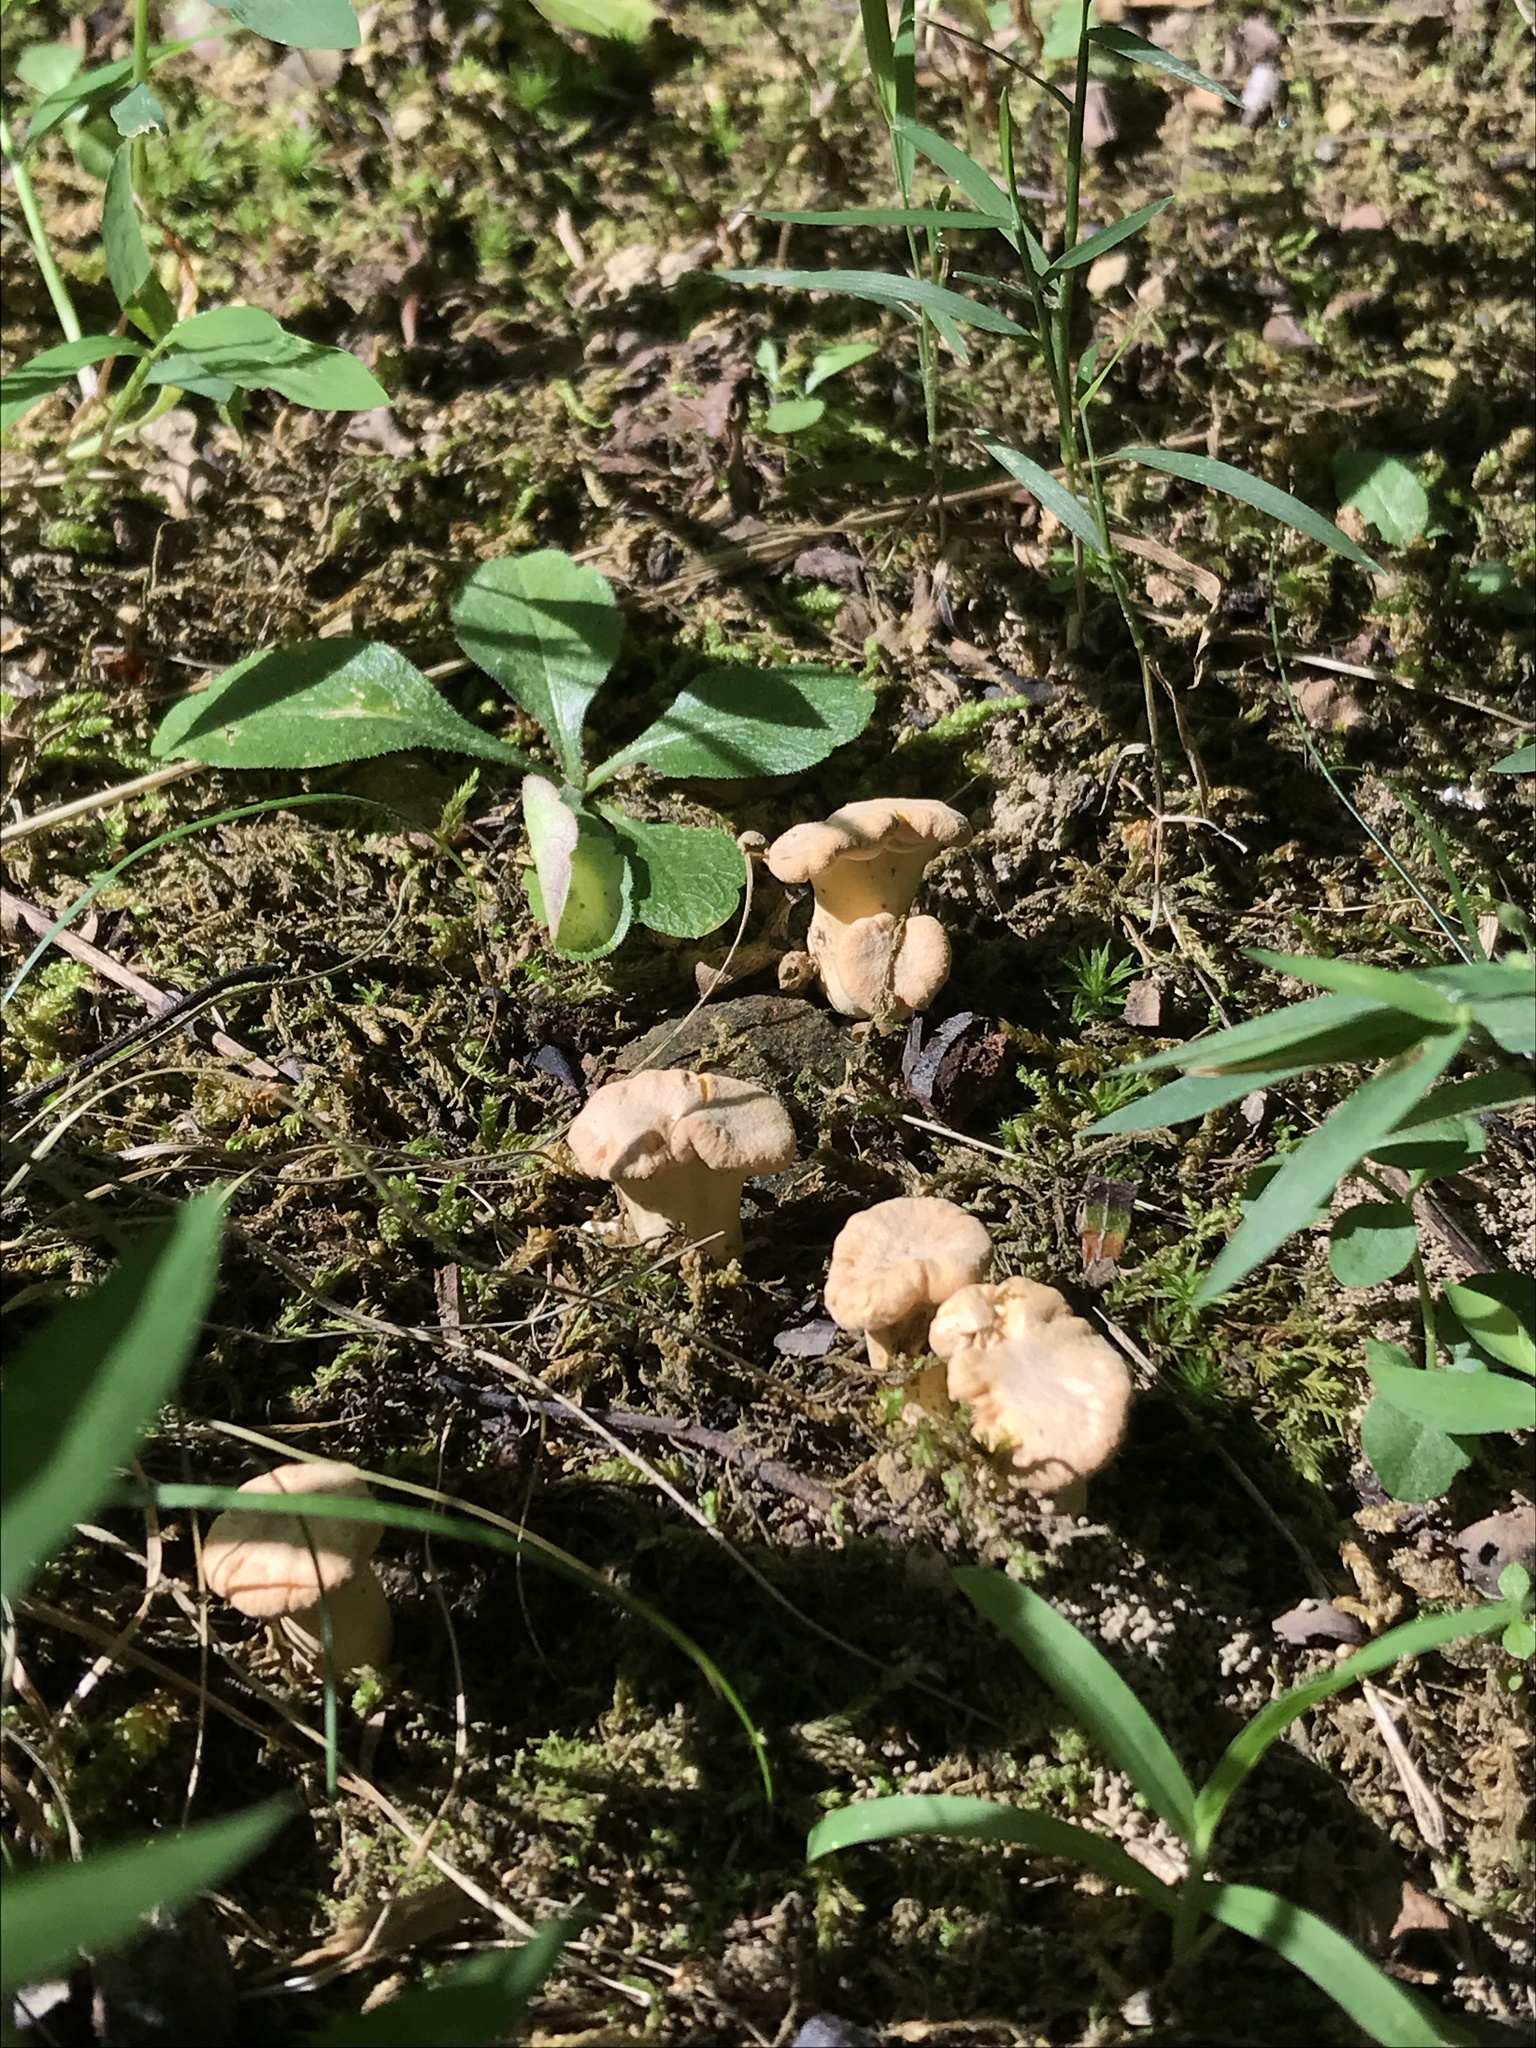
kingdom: Fungi
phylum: Basidiomycota
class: Agaricomycetes
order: Cantharellales
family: Hydnaceae
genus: Cantharellus
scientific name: Cantharellus flavolateritius
